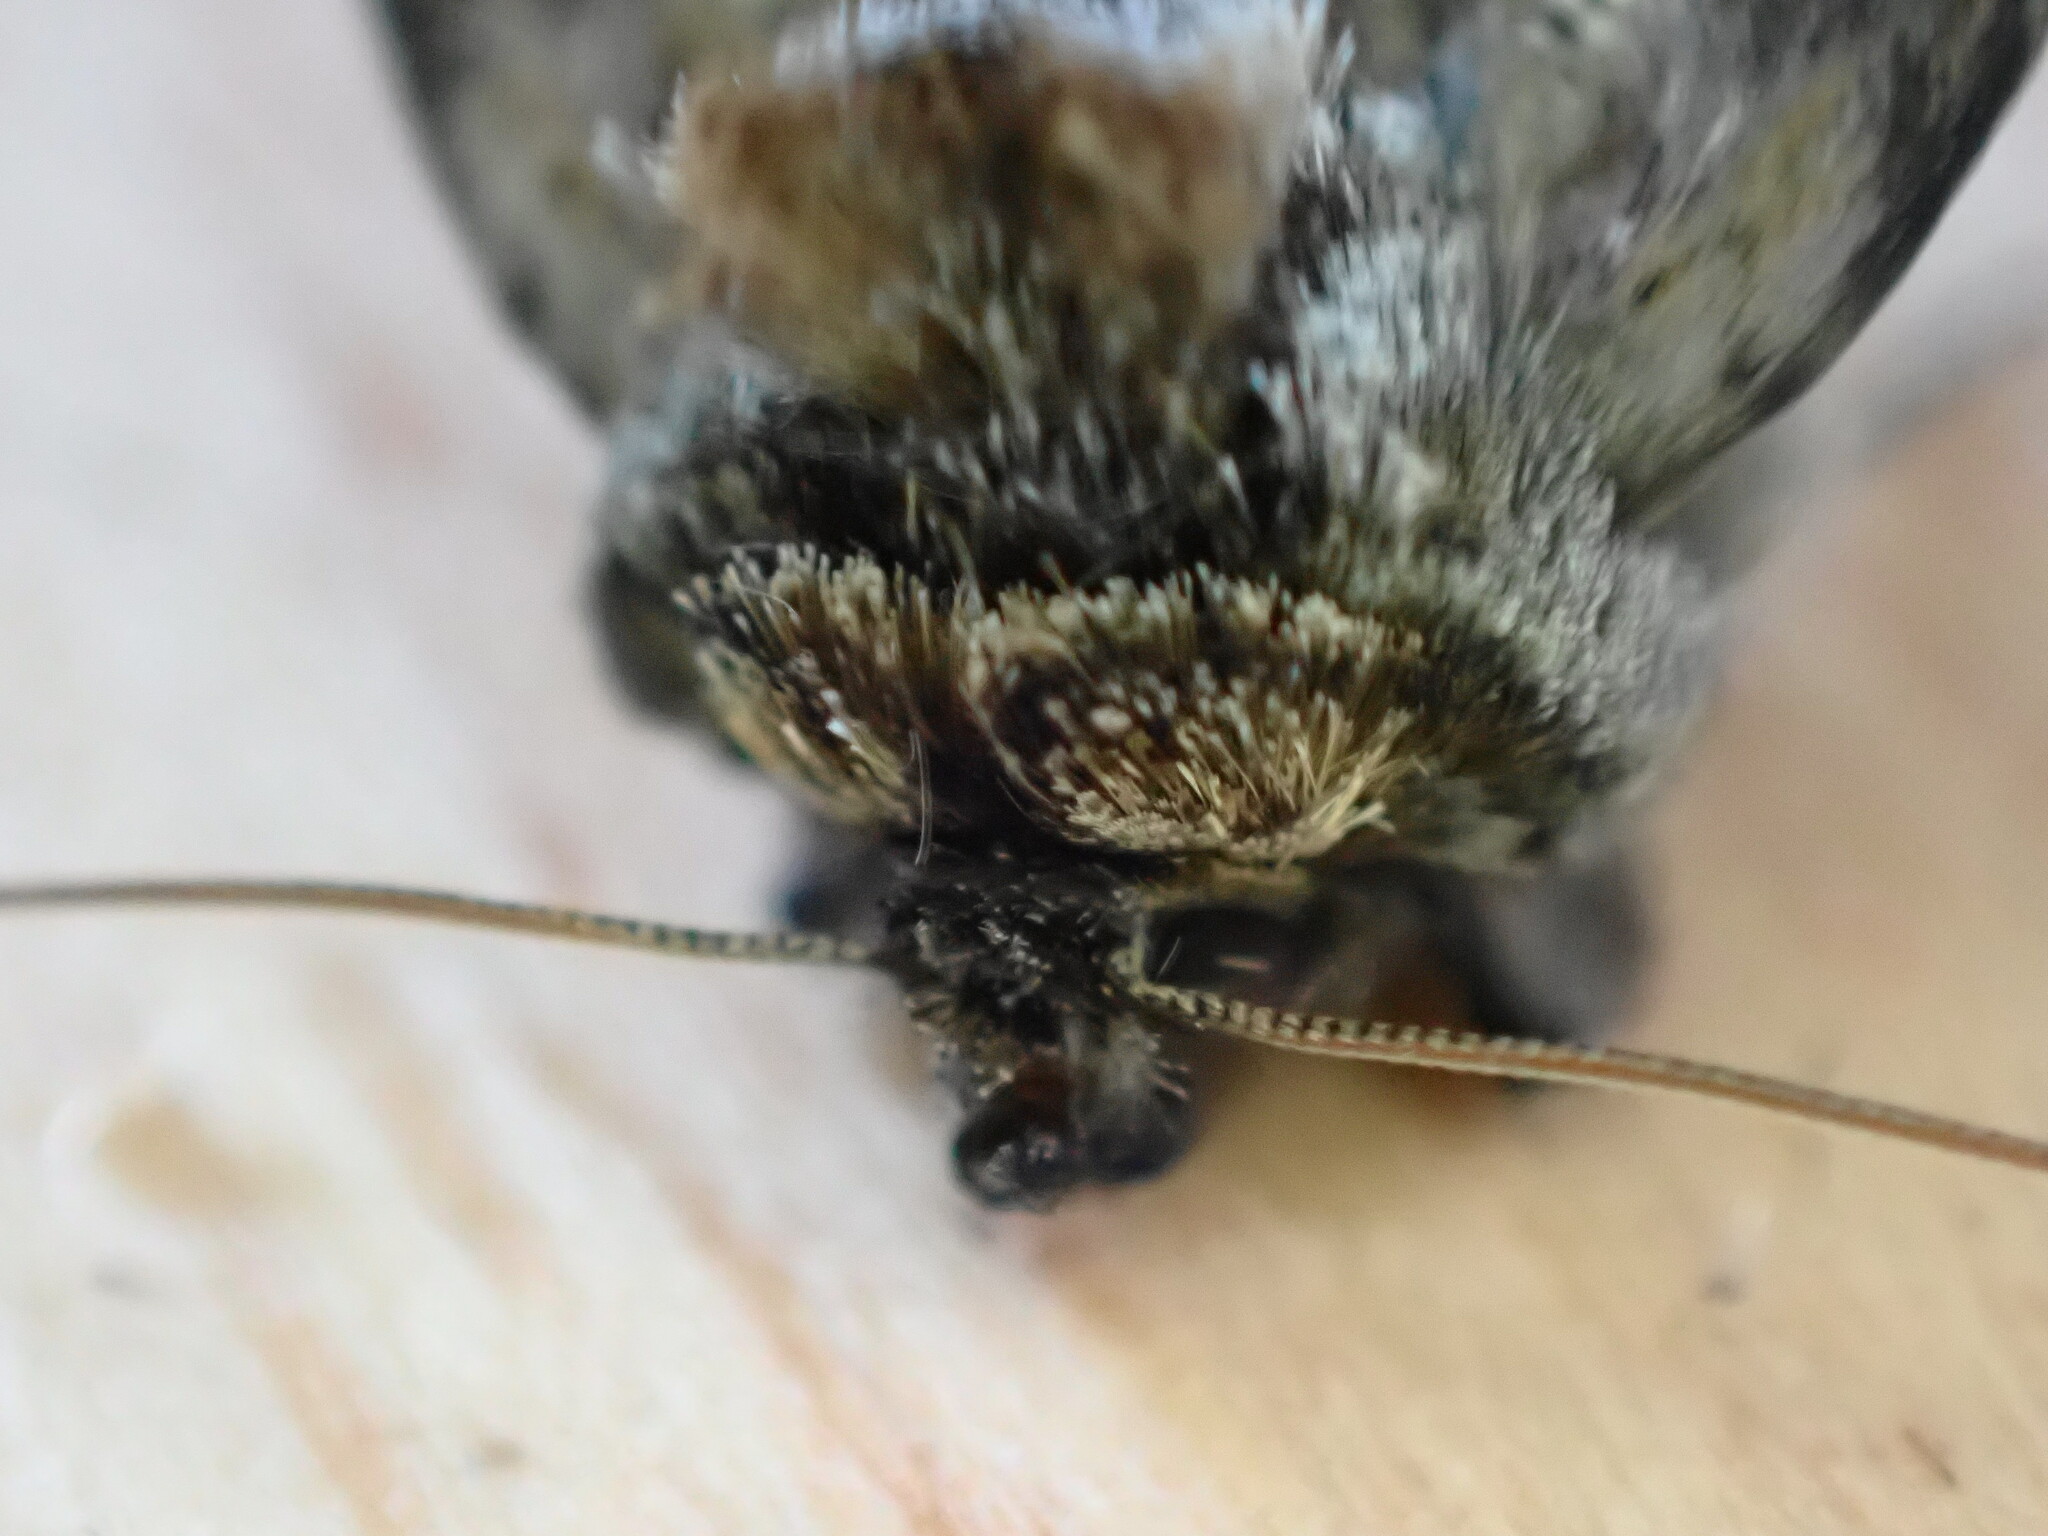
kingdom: Animalia
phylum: Arthropoda
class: Insecta
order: Lepidoptera
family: Noctuidae
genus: Abrostola
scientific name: Abrostola tripartita
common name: Spectacle
